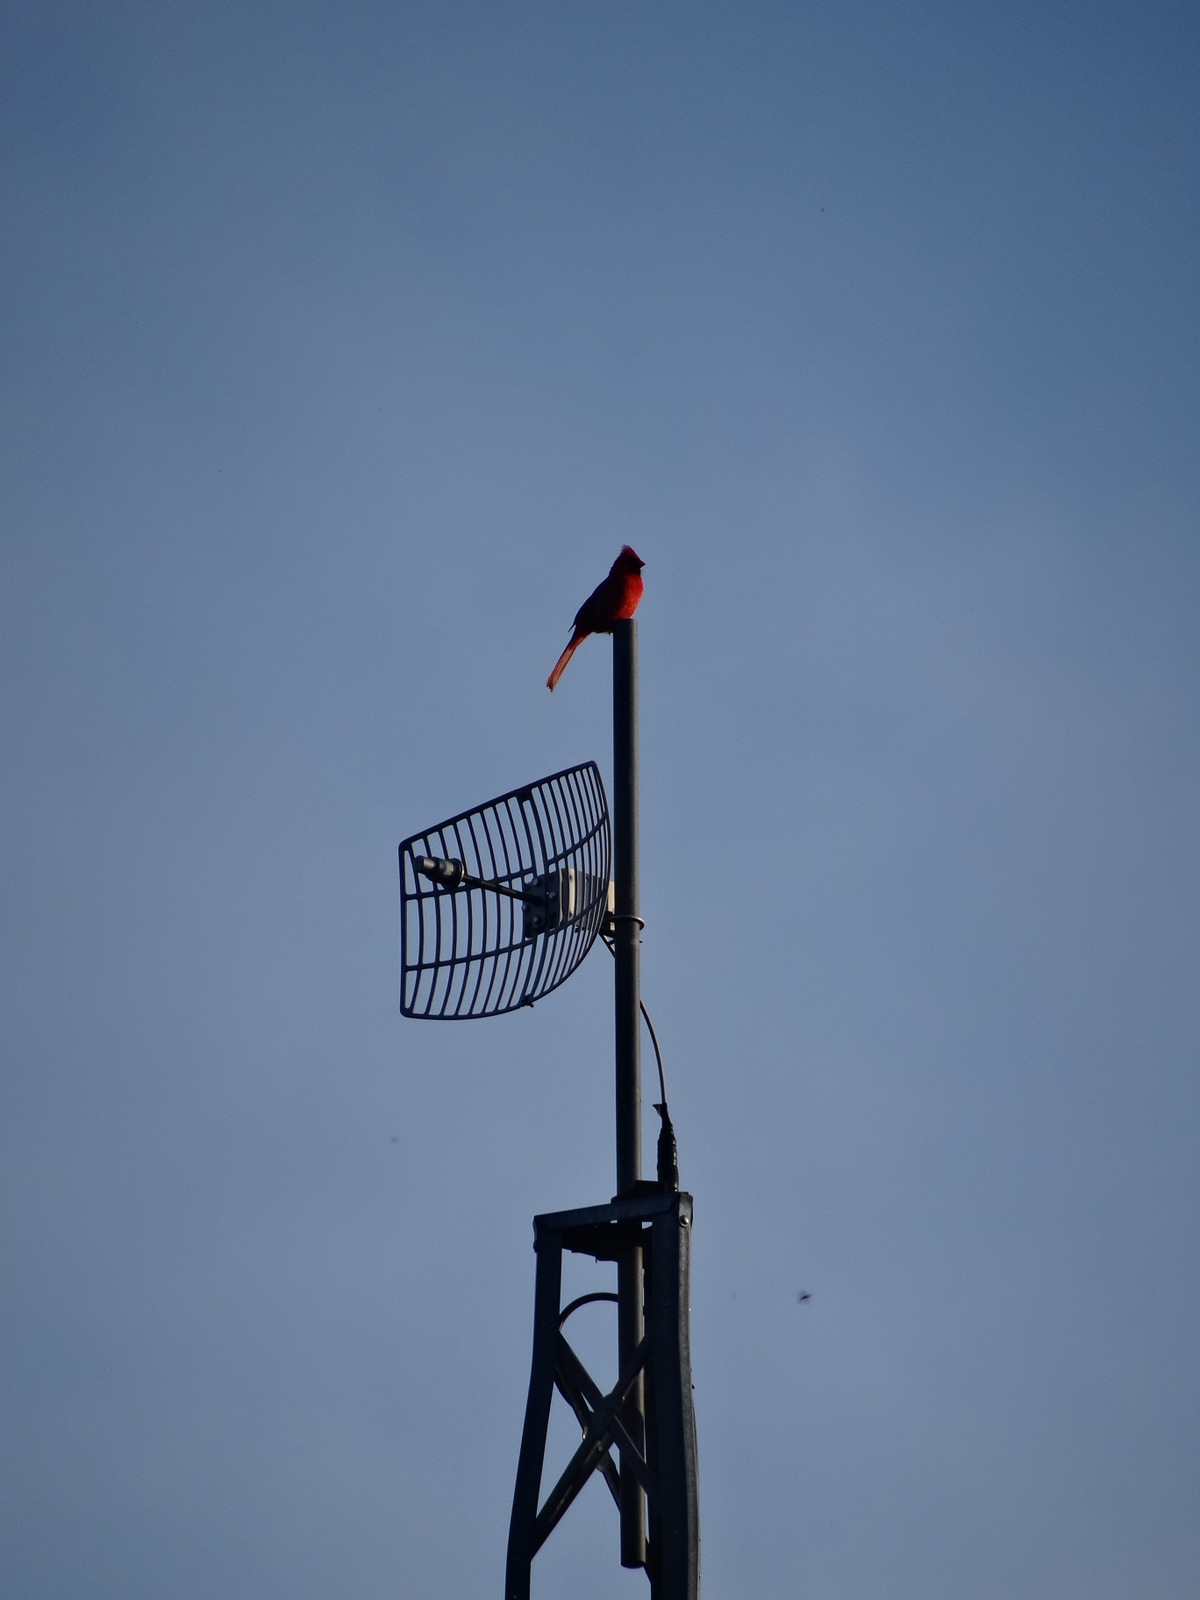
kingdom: Animalia
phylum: Chordata
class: Aves
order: Passeriformes
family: Cardinalidae
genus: Cardinalis
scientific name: Cardinalis cardinalis
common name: Northern cardinal
